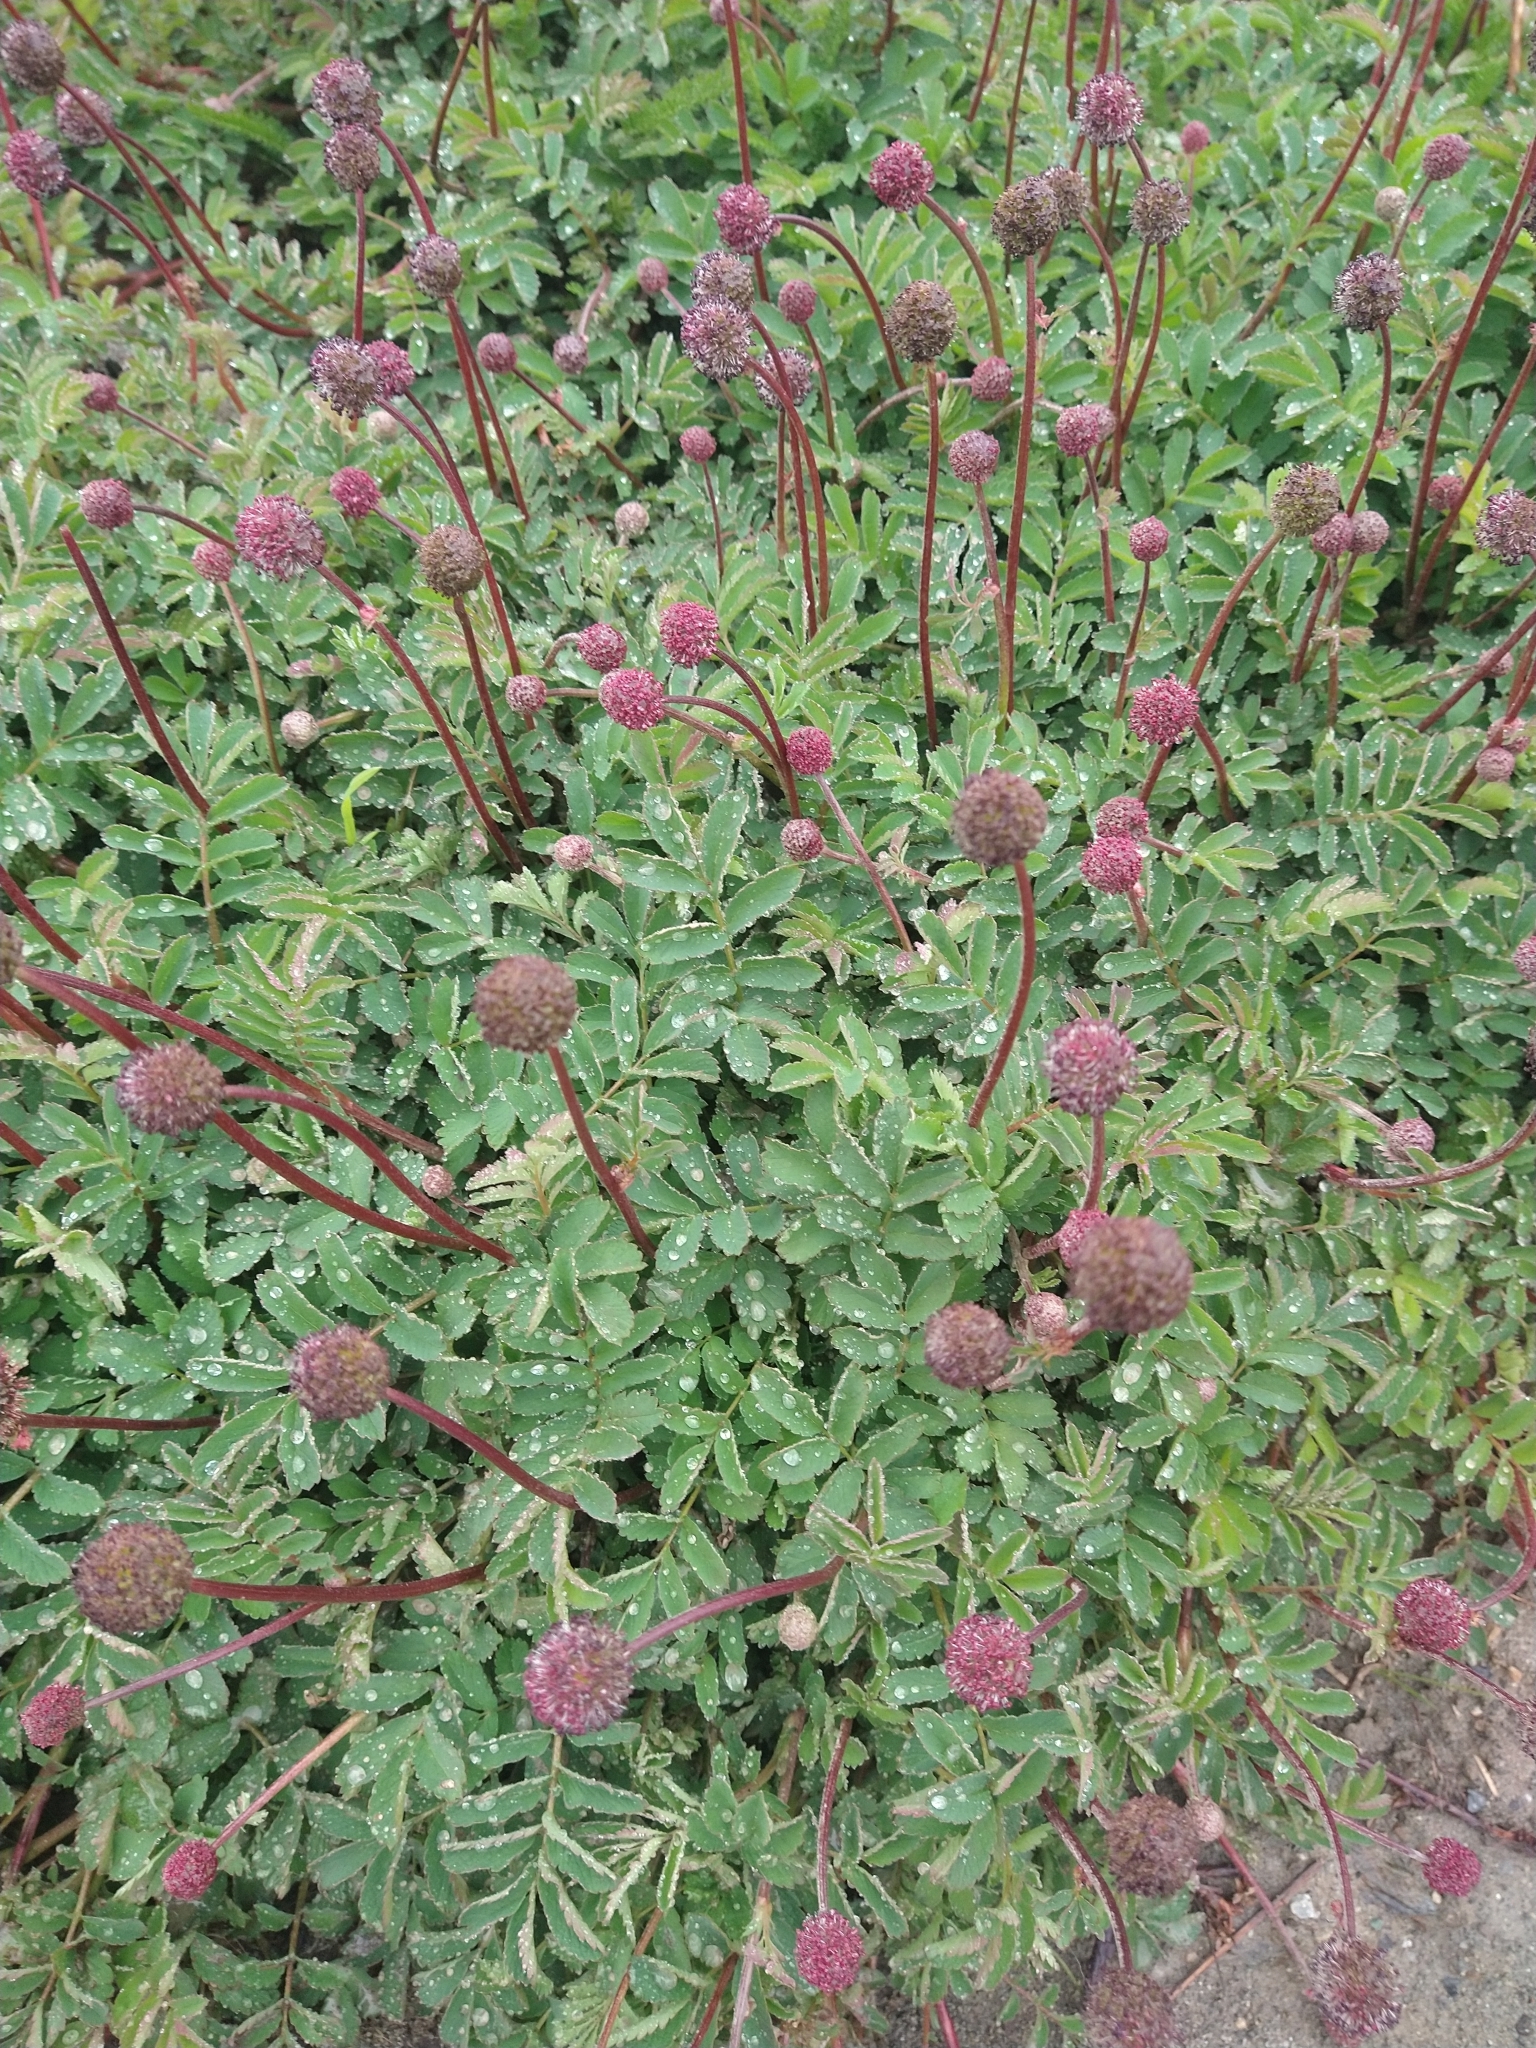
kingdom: Plantae
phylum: Tracheophyta
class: Magnoliopsida
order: Rosales
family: Rosaceae
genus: Acaena
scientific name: Acaena magellanica
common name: New zealand burr
